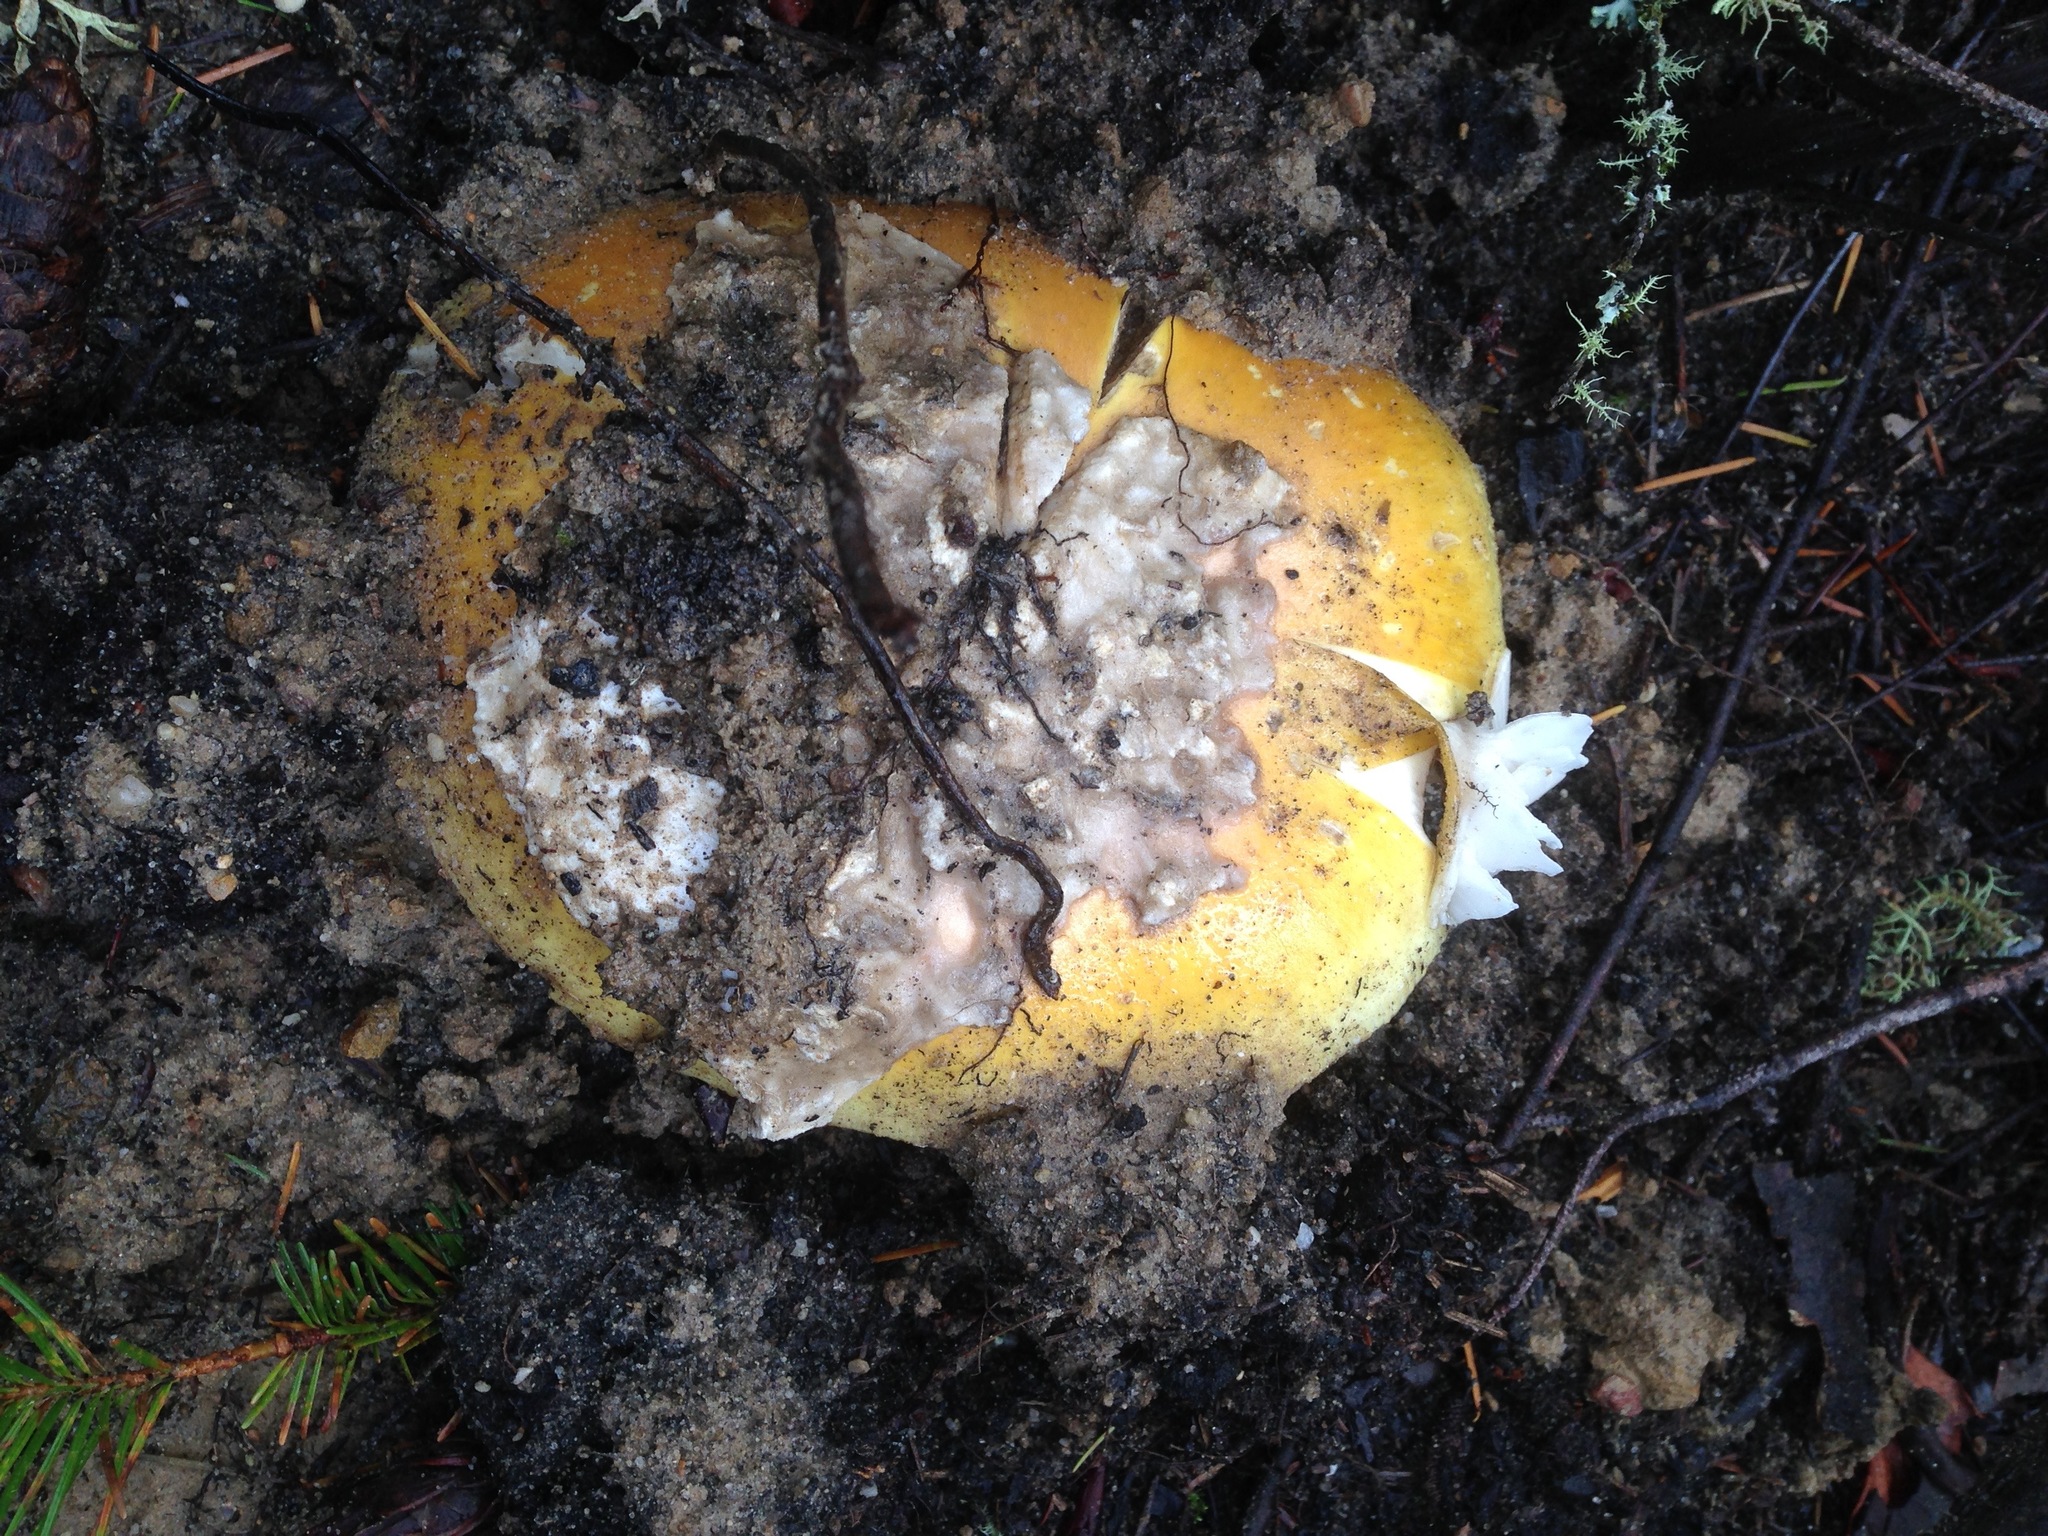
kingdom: Fungi
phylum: Basidiomycota
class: Agaricomycetes
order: Agaricales
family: Amanitaceae
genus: Amanita
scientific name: Amanita calyptroderma
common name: Coccora
